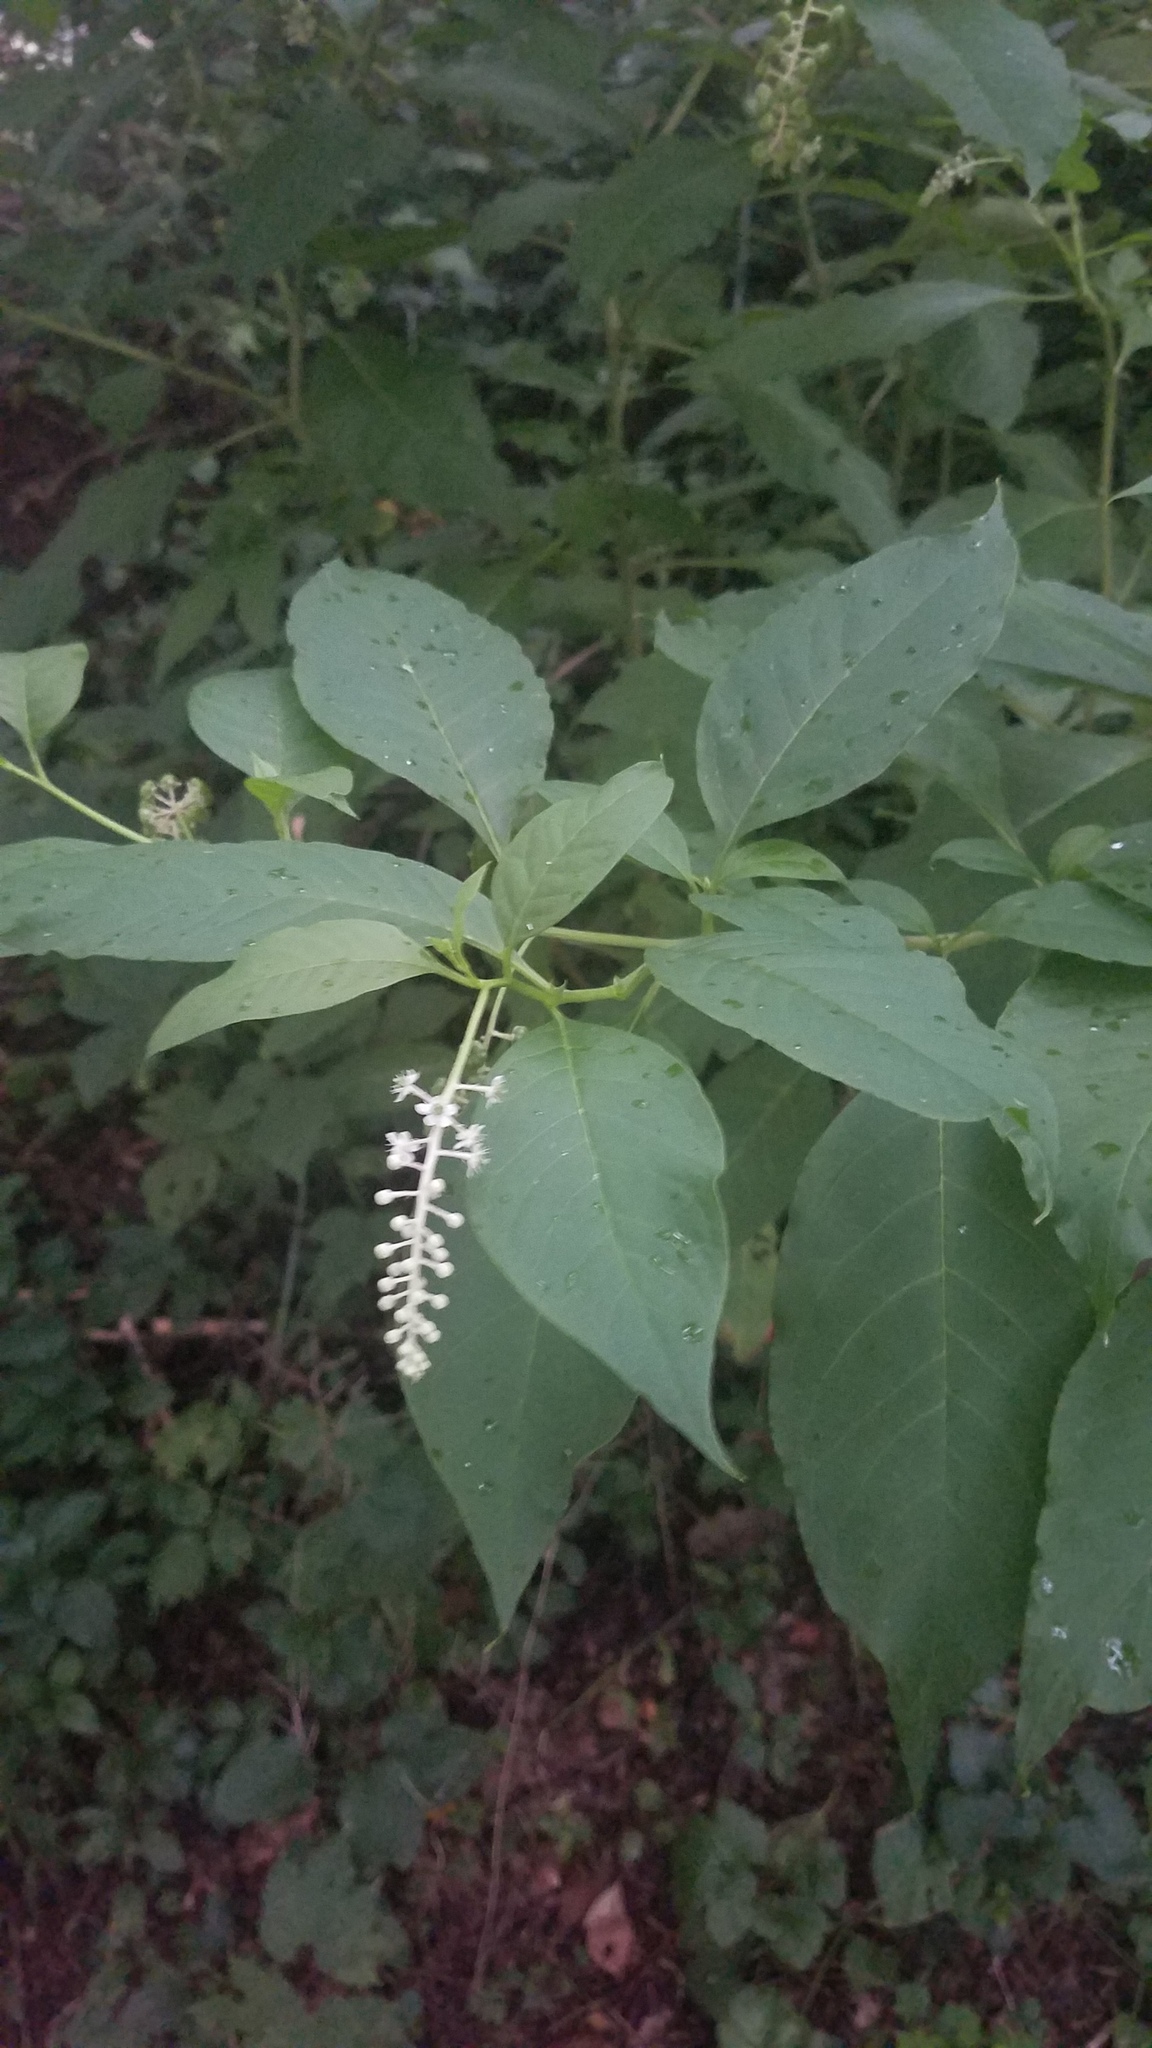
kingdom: Plantae
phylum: Tracheophyta
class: Magnoliopsida
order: Caryophyllales
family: Phytolaccaceae
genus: Phytolacca
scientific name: Phytolacca americana
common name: American pokeweed
